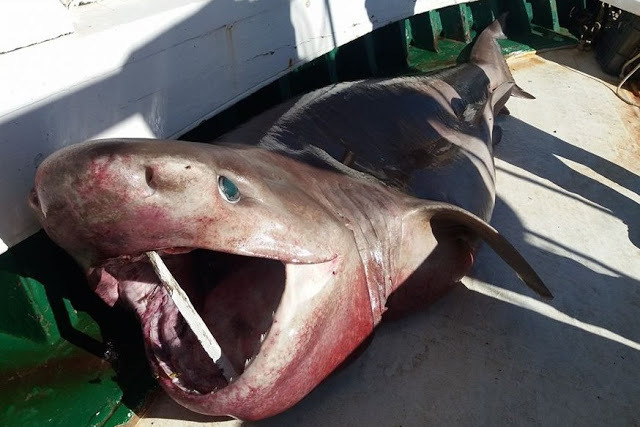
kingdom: Animalia
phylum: Chordata
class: Elasmobranchii
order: Hexanchiformes
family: Hexanchidae
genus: Hexanchus
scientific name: Hexanchus griseus
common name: Bluntnose sixgill shark
